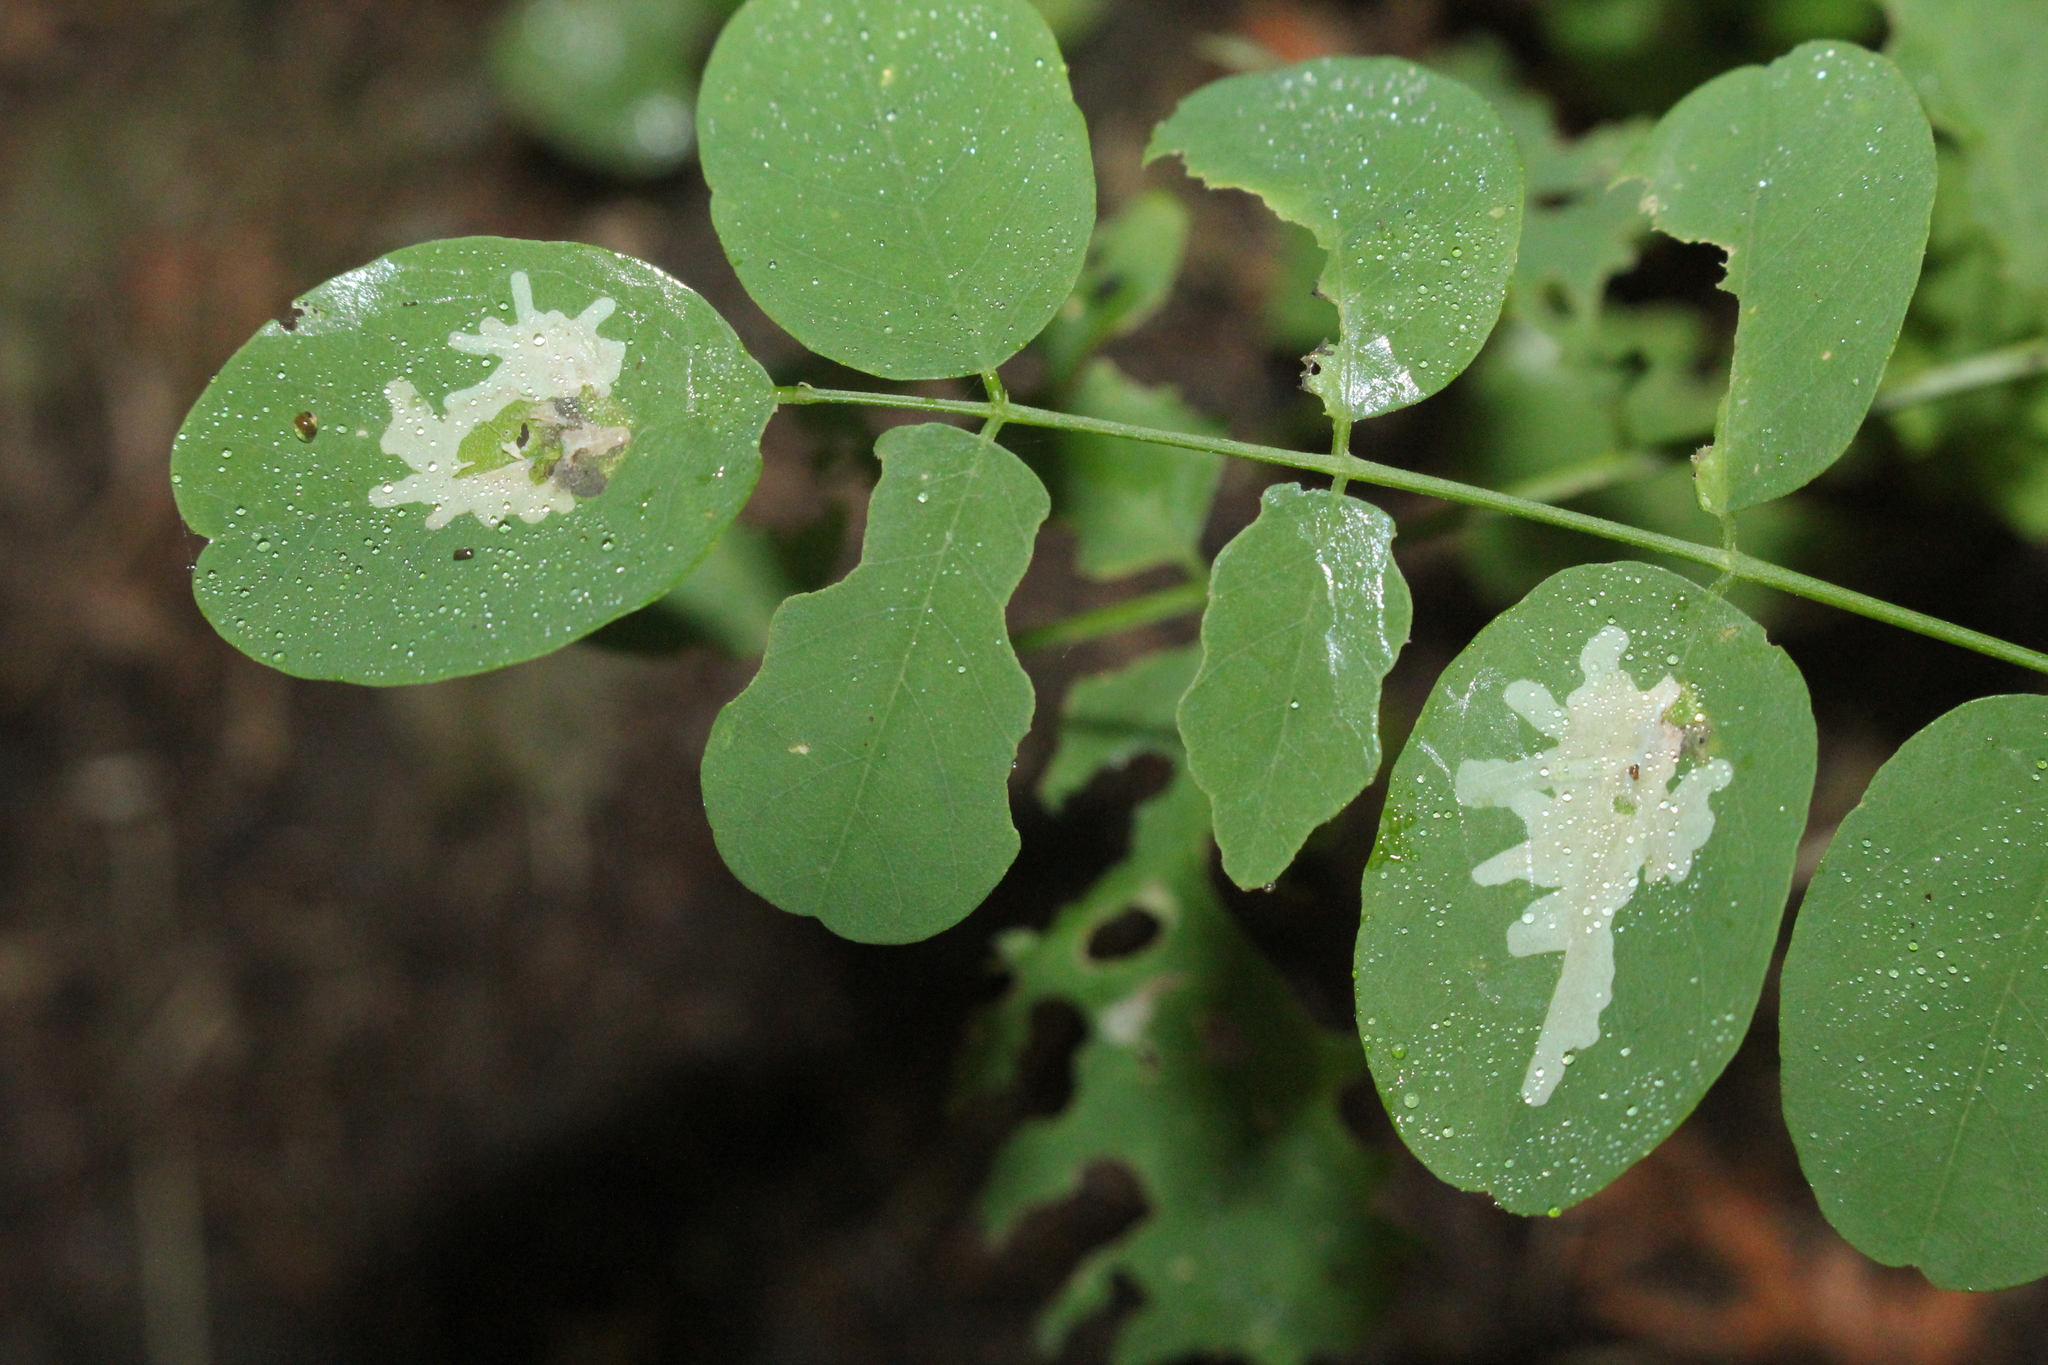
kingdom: Animalia
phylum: Arthropoda
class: Insecta
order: Lepidoptera
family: Gracillariidae
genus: Parectopa
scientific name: Parectopa robiniella
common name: Locust digitate leafminer
